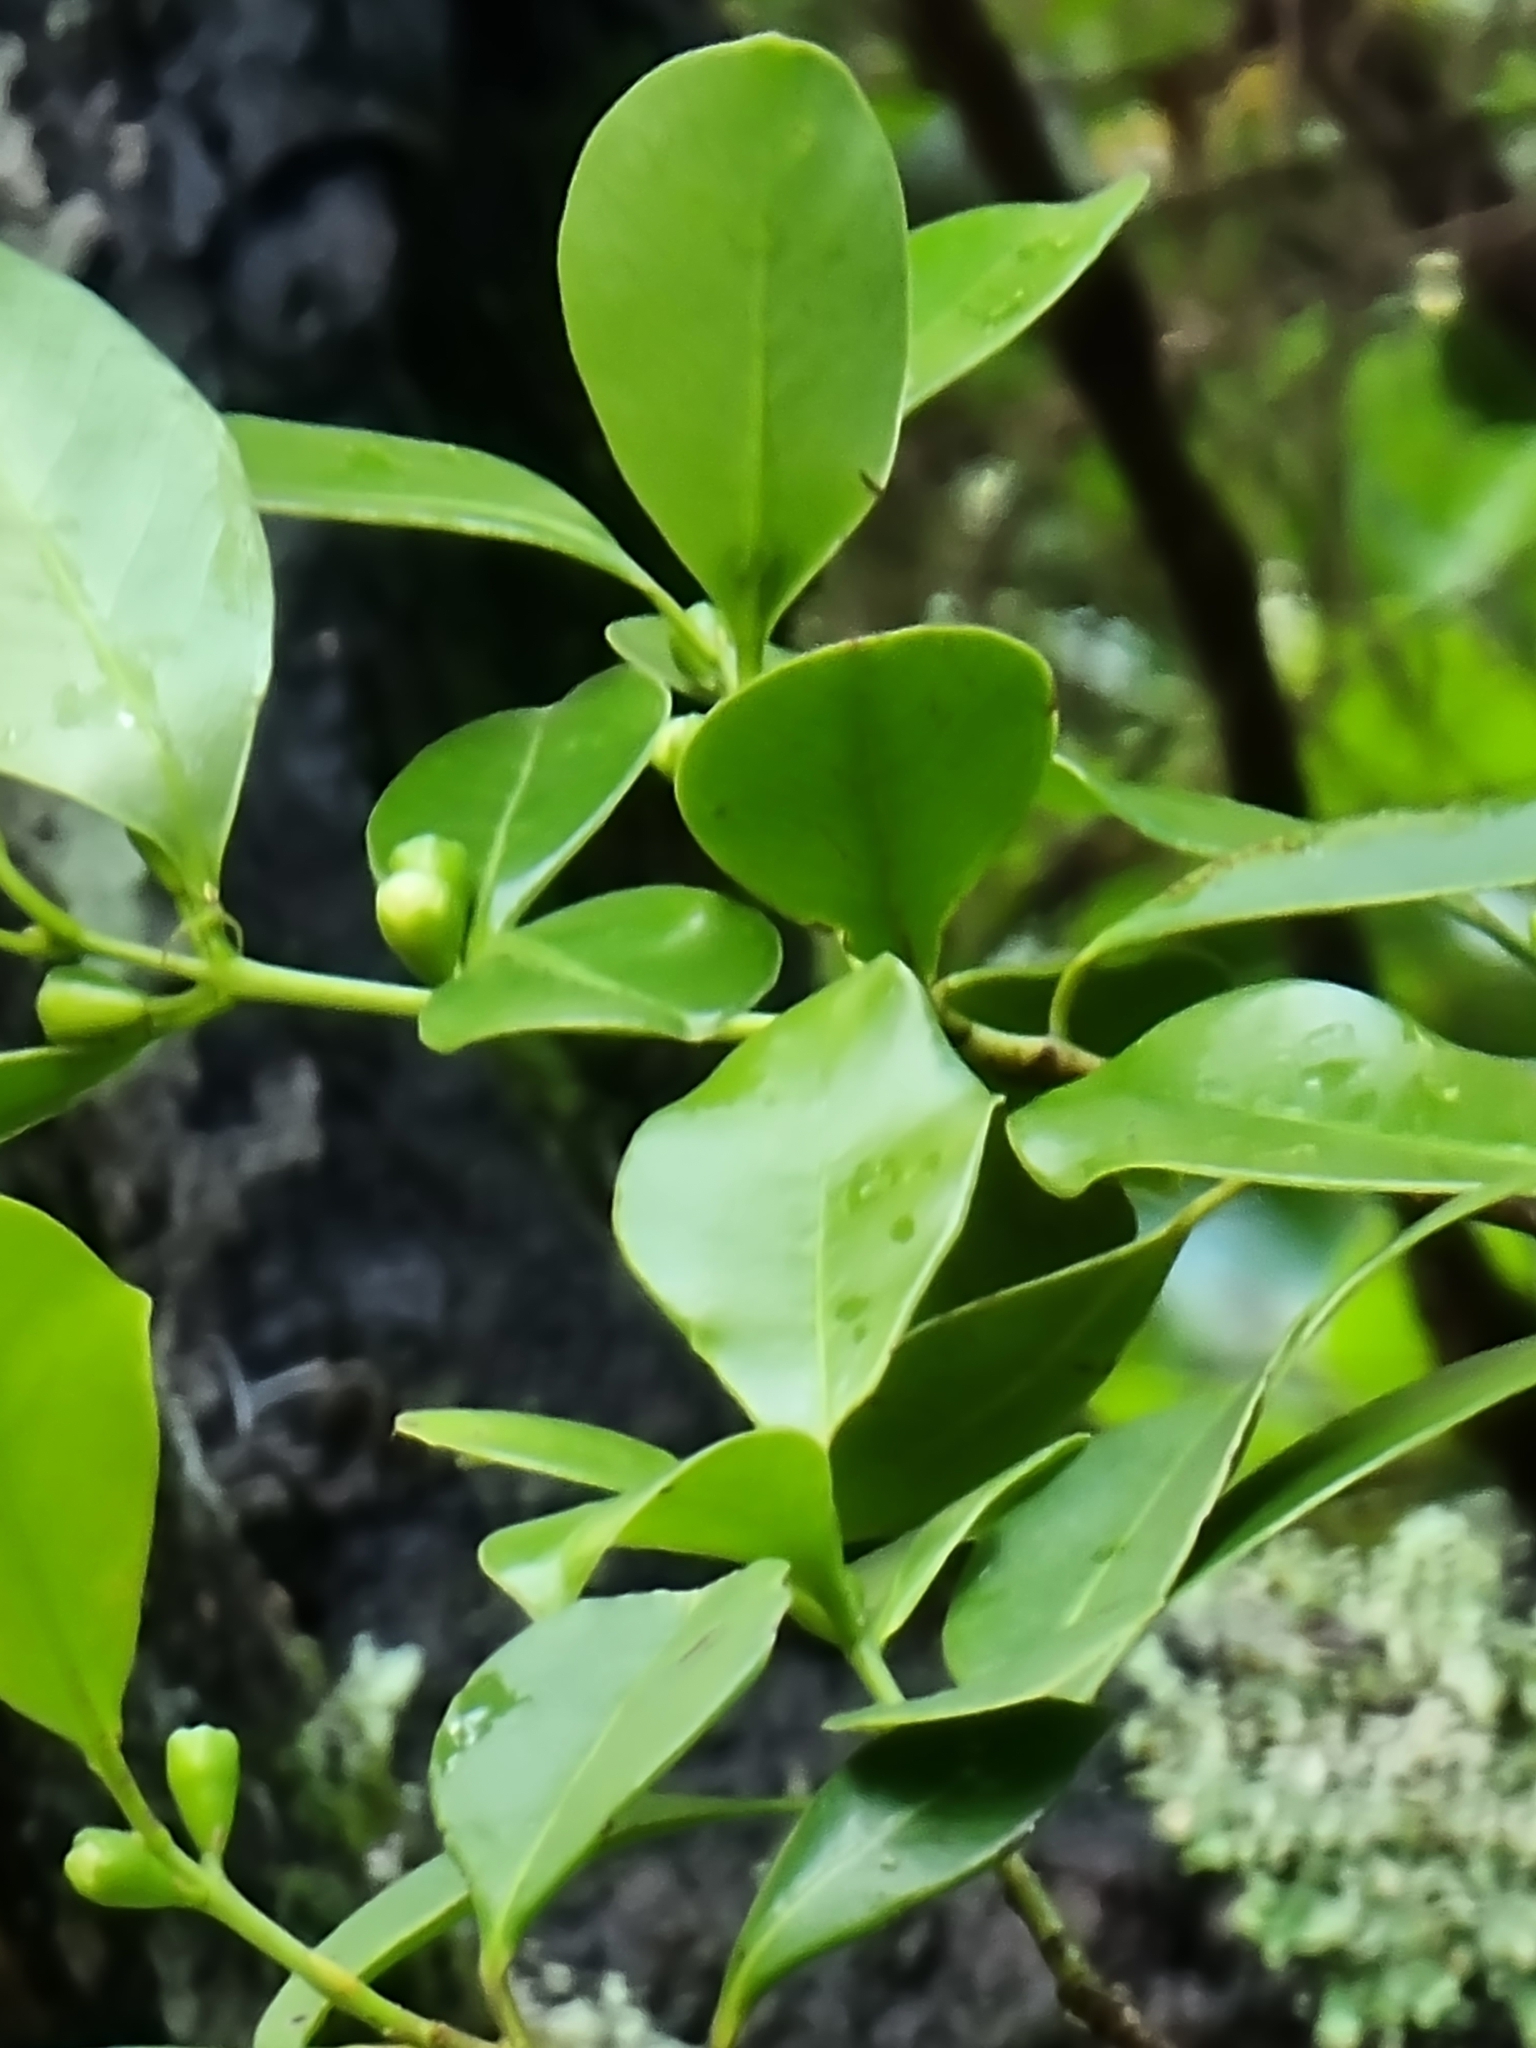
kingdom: Plantae
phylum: Tracheophyta
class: Magnoliopsida
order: Myrtales
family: Myrtaceae
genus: Psidium
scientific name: Psidium cattleianum
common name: Strawberry guava
